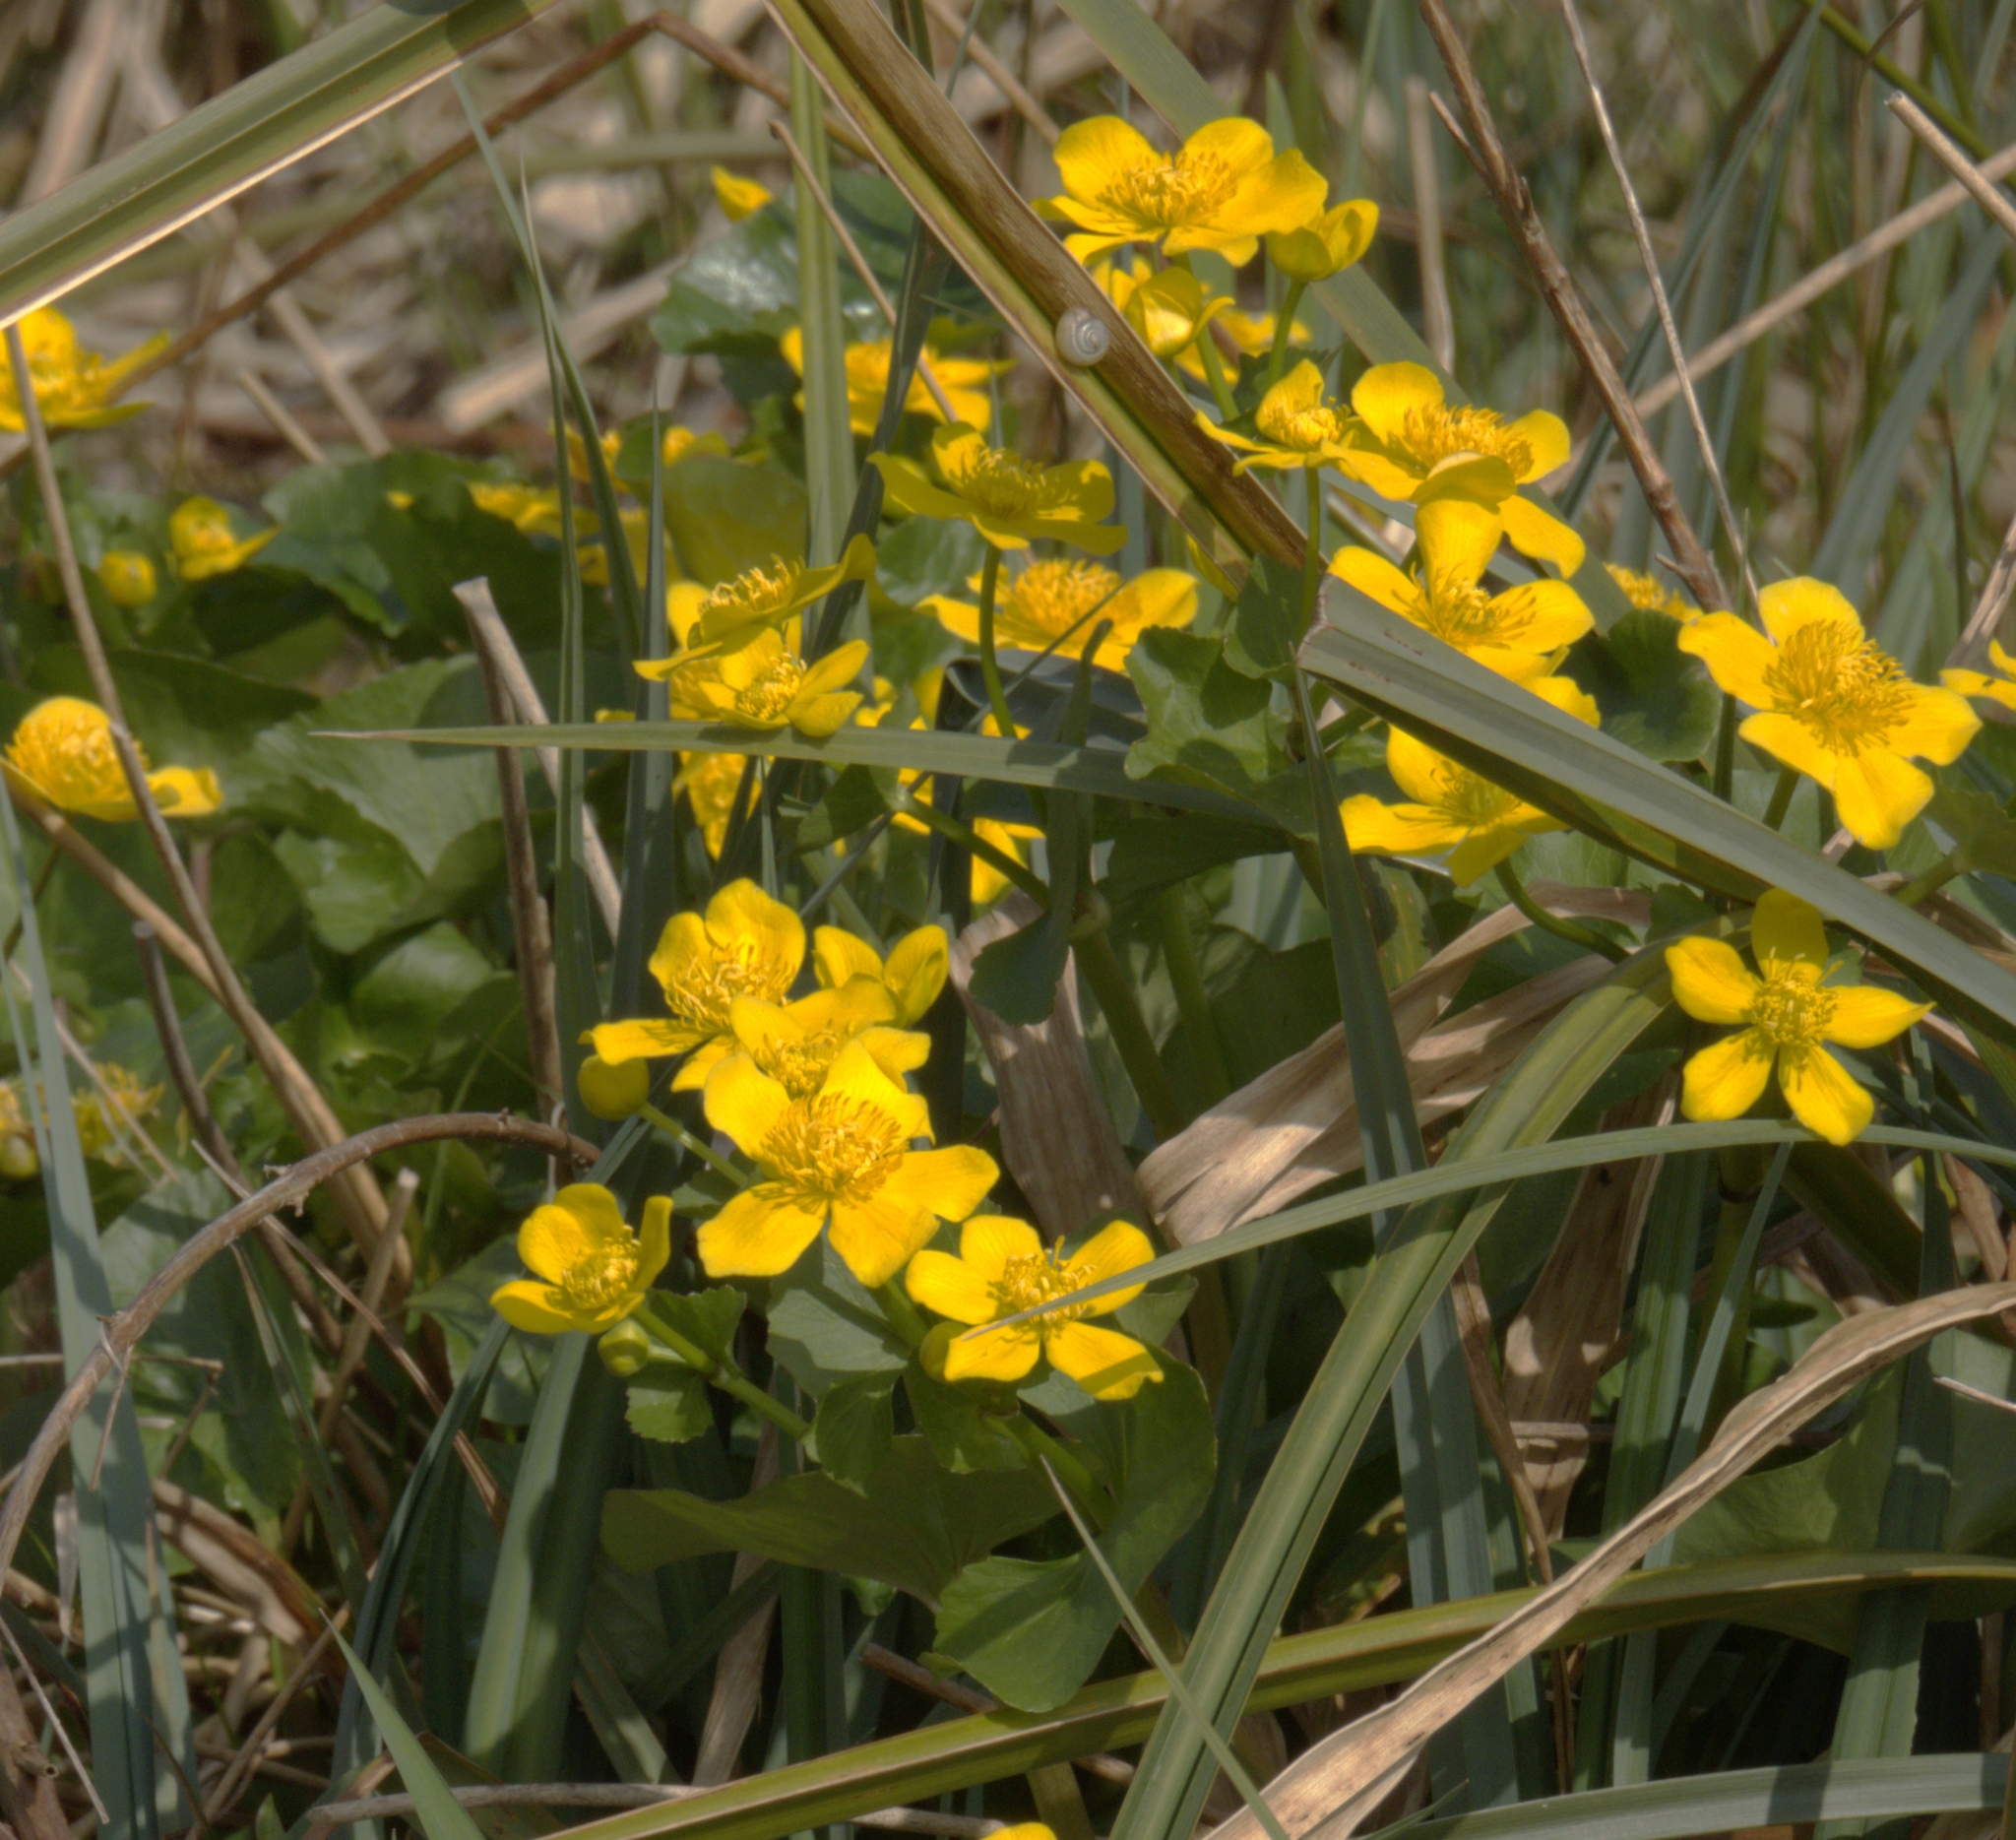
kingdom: Plantae
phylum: Tracheophyta
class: Magnoliopsida
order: Ranunculales
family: Ranunculaceae
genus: Caltha
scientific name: Caltha palustris
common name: Marsh marigold
